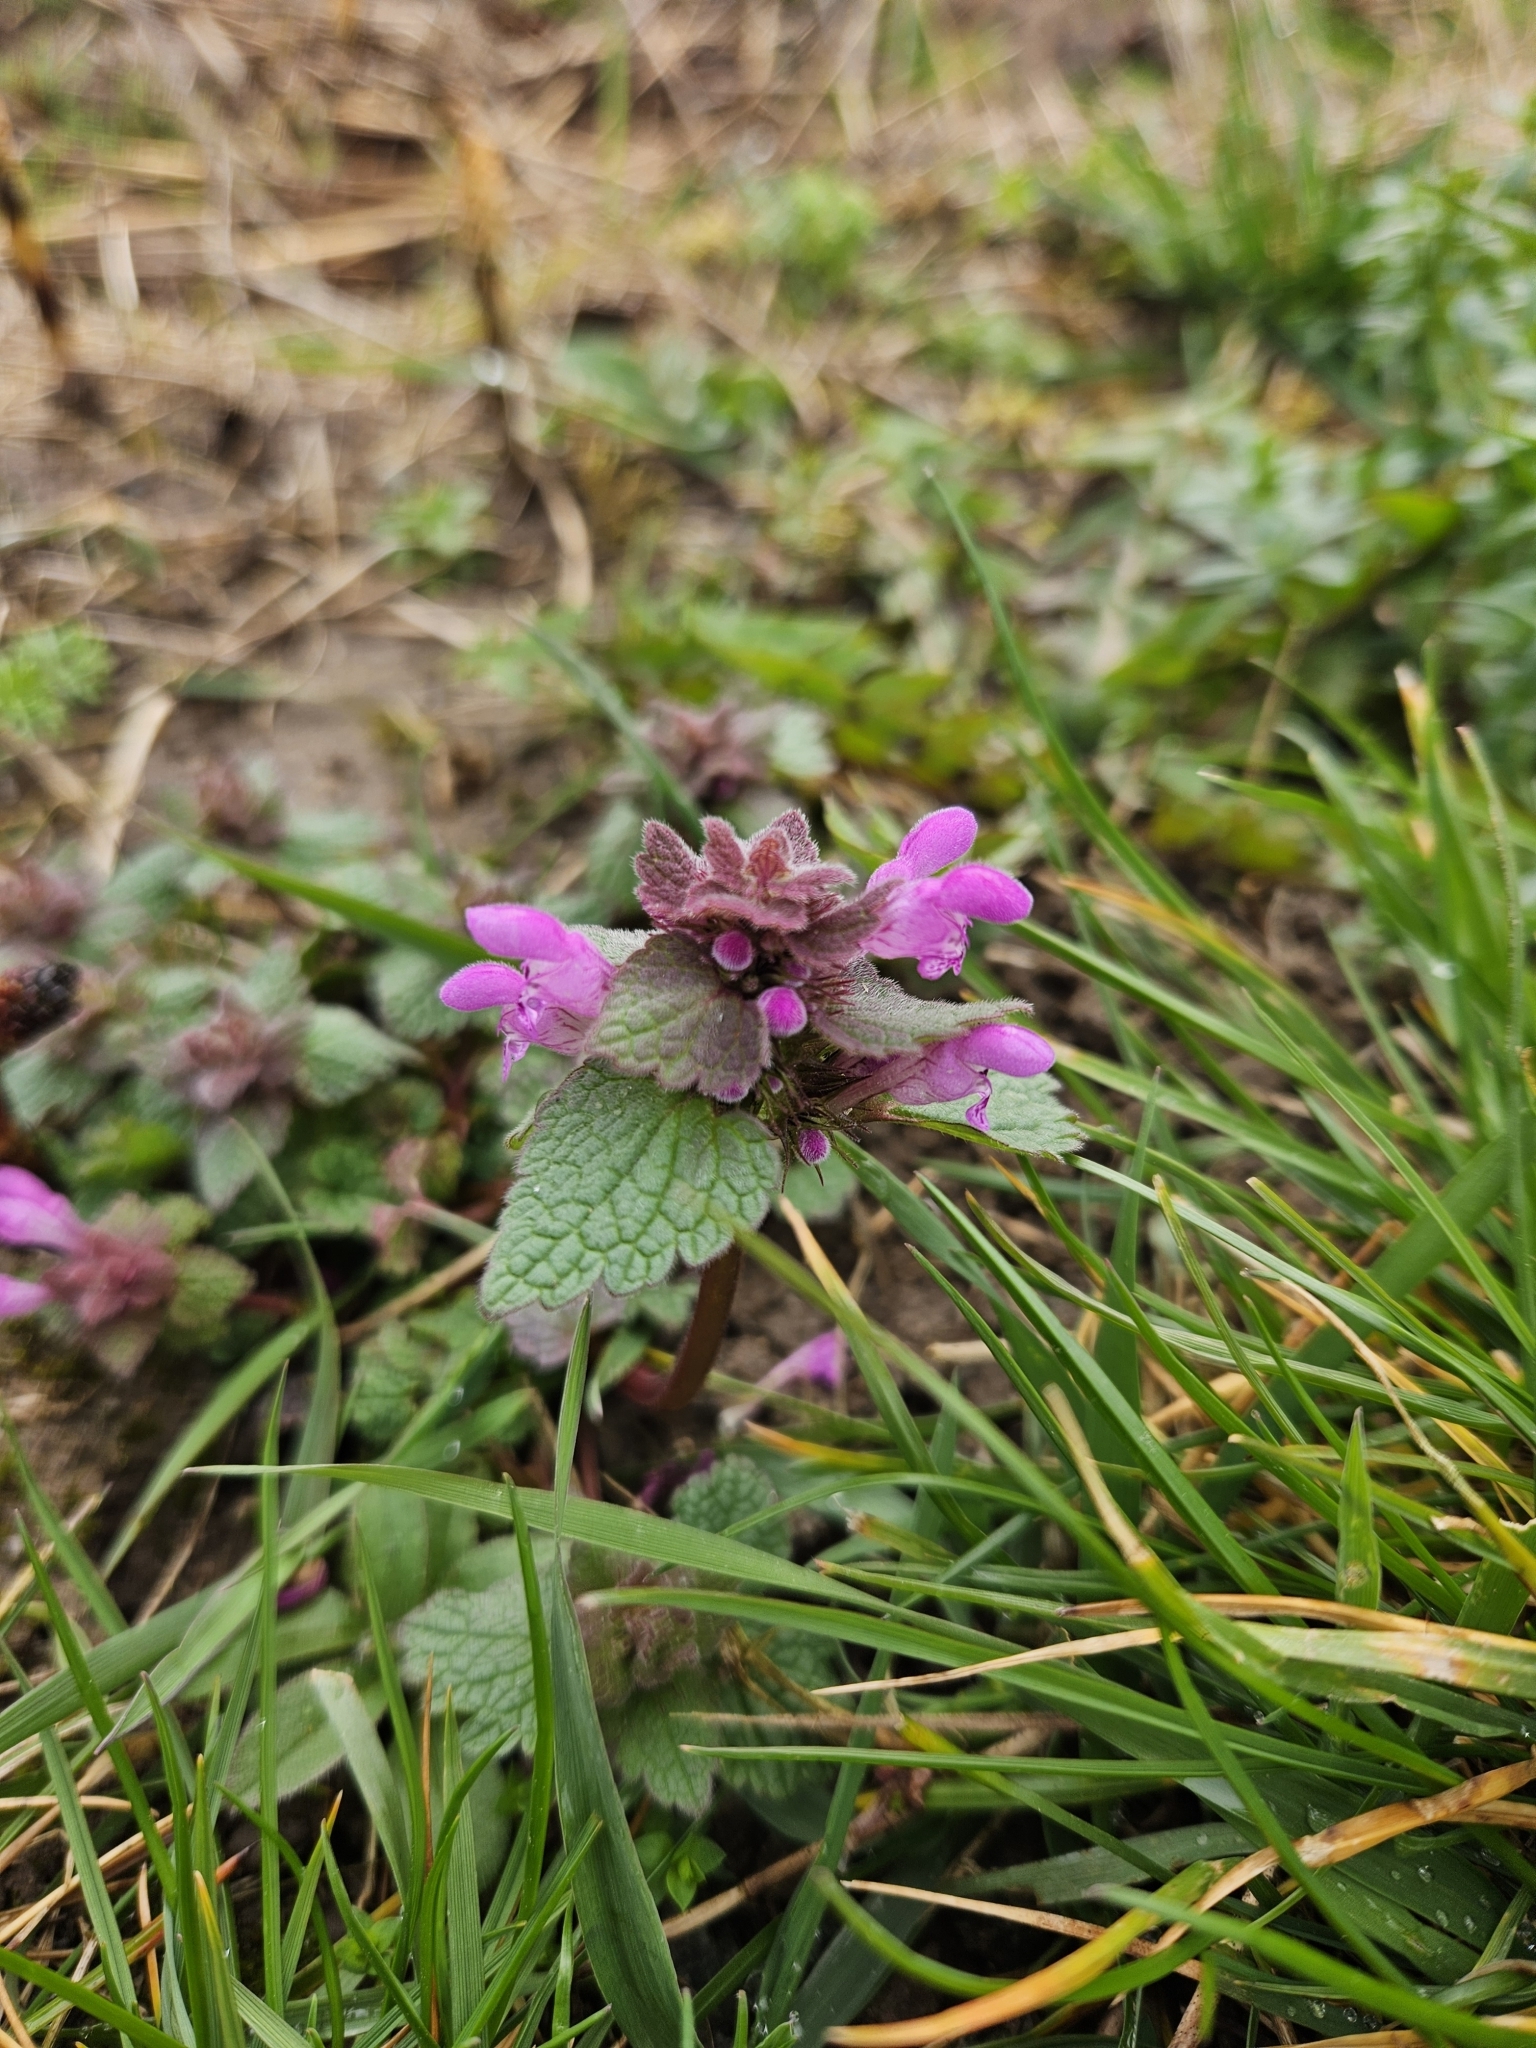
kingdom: Plantae
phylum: Tracheophyta
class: Magnoliopsida
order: Lamiales
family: Lamiaceae
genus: Lamium
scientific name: Lamium purpureum
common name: Red dead-nettle
